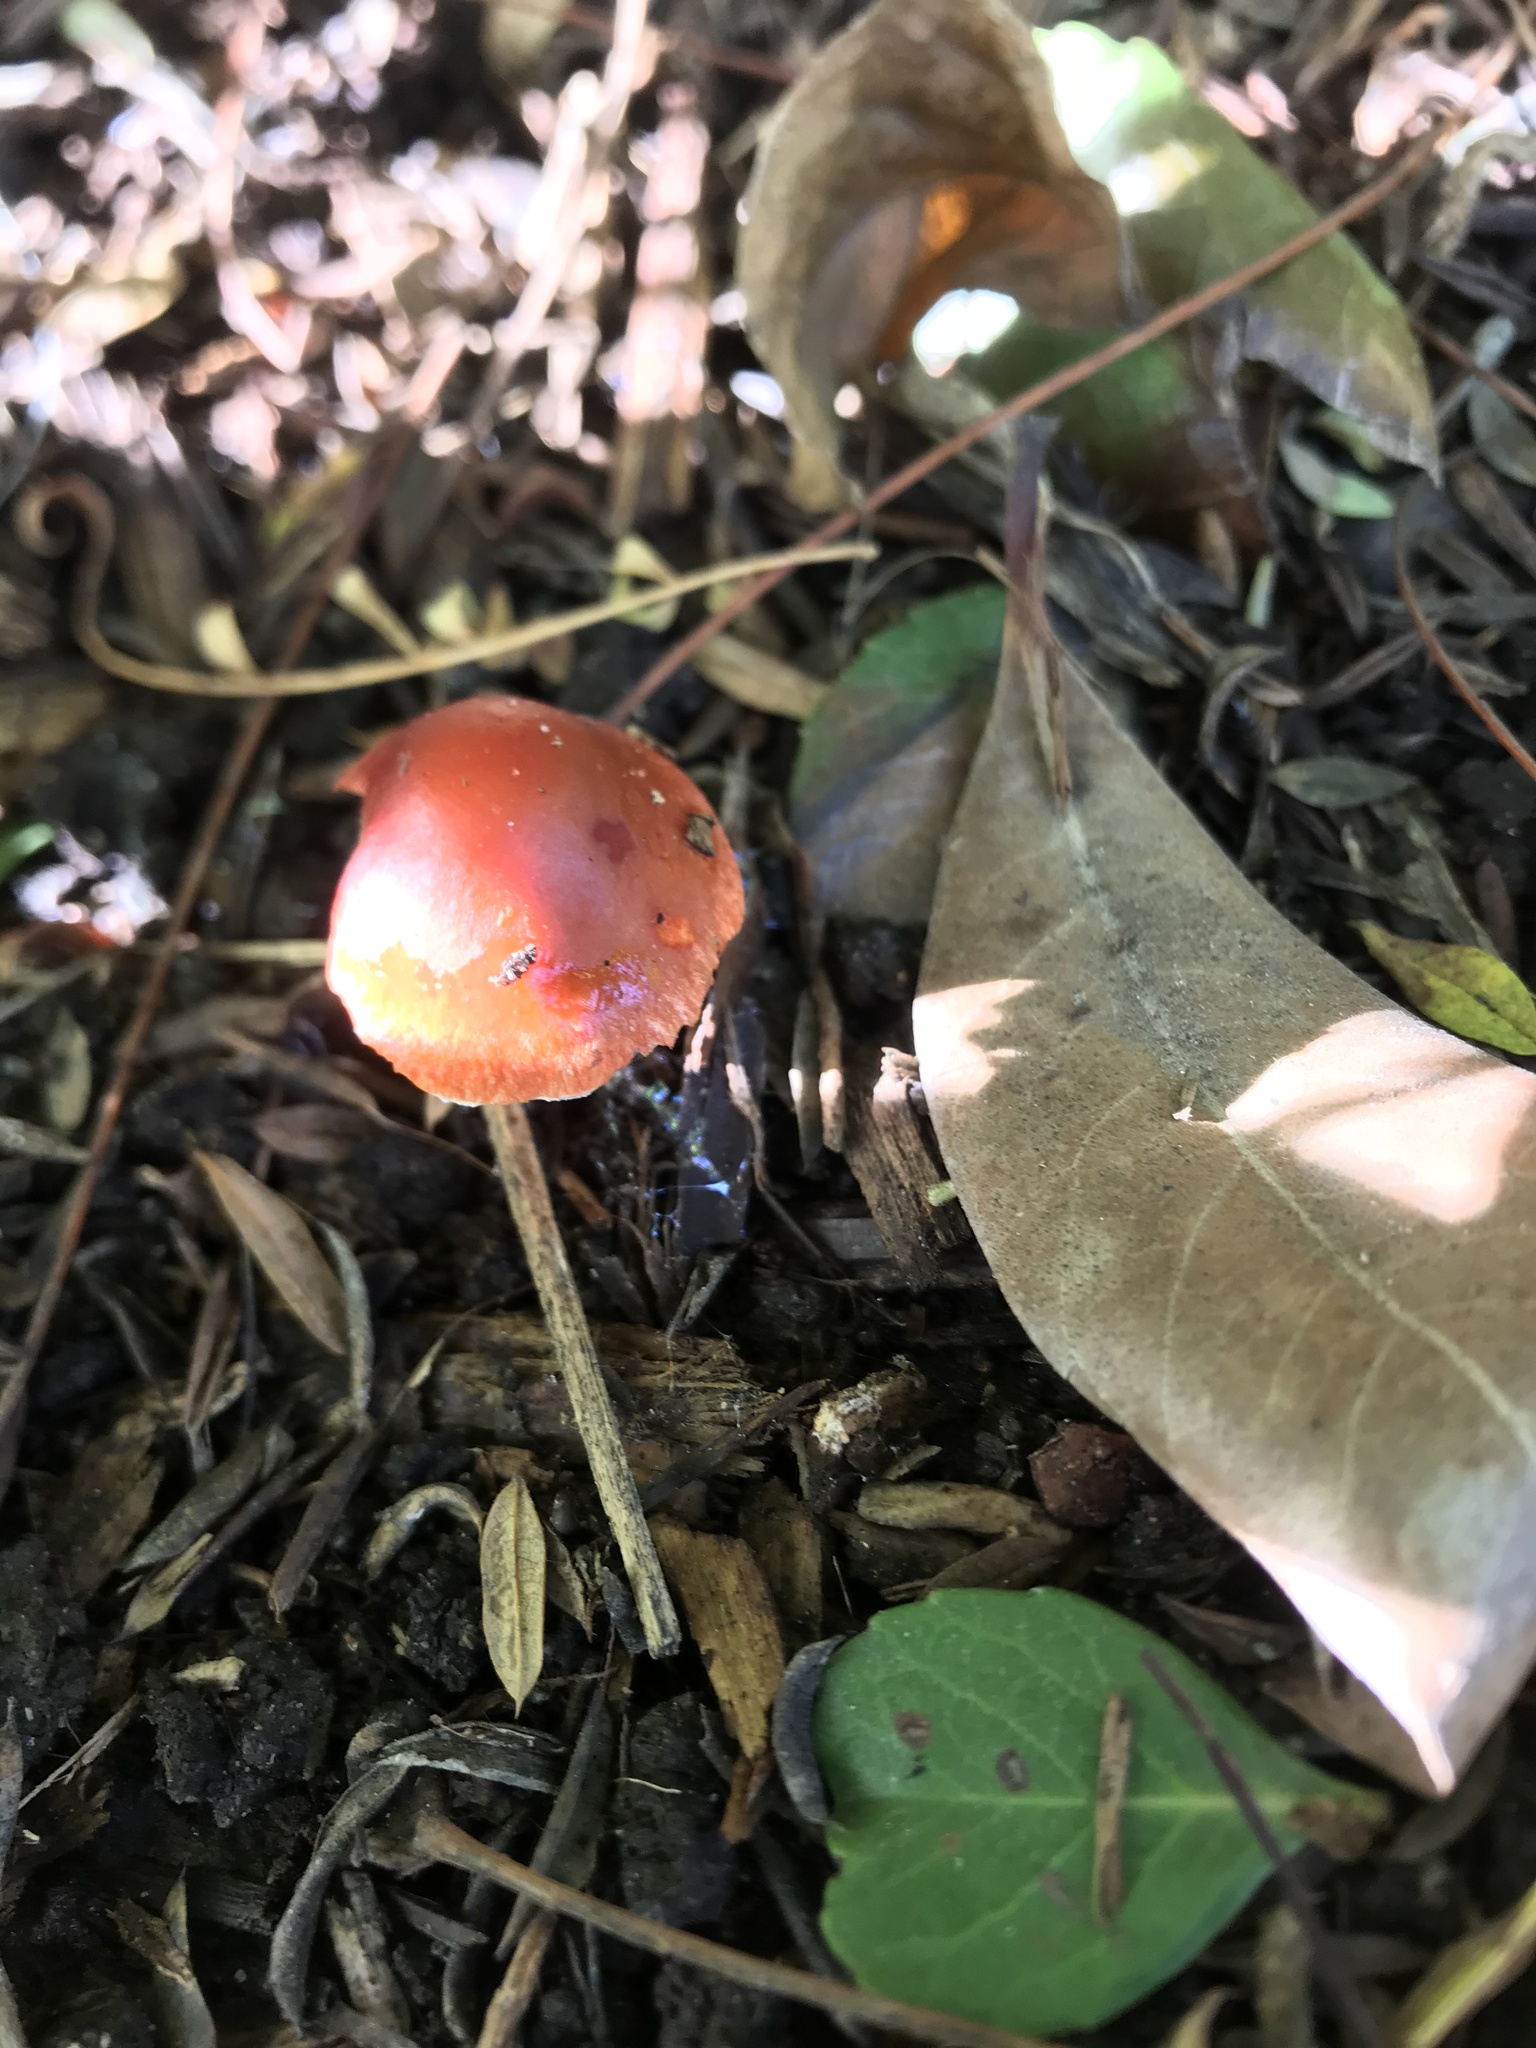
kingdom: Fungi
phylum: Basidiomycota
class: Agaricomycetes
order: Agaricales
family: Strophariaceae
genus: Leratiomyces
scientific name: Leratiomyces ceres
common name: Redlead roundhead
